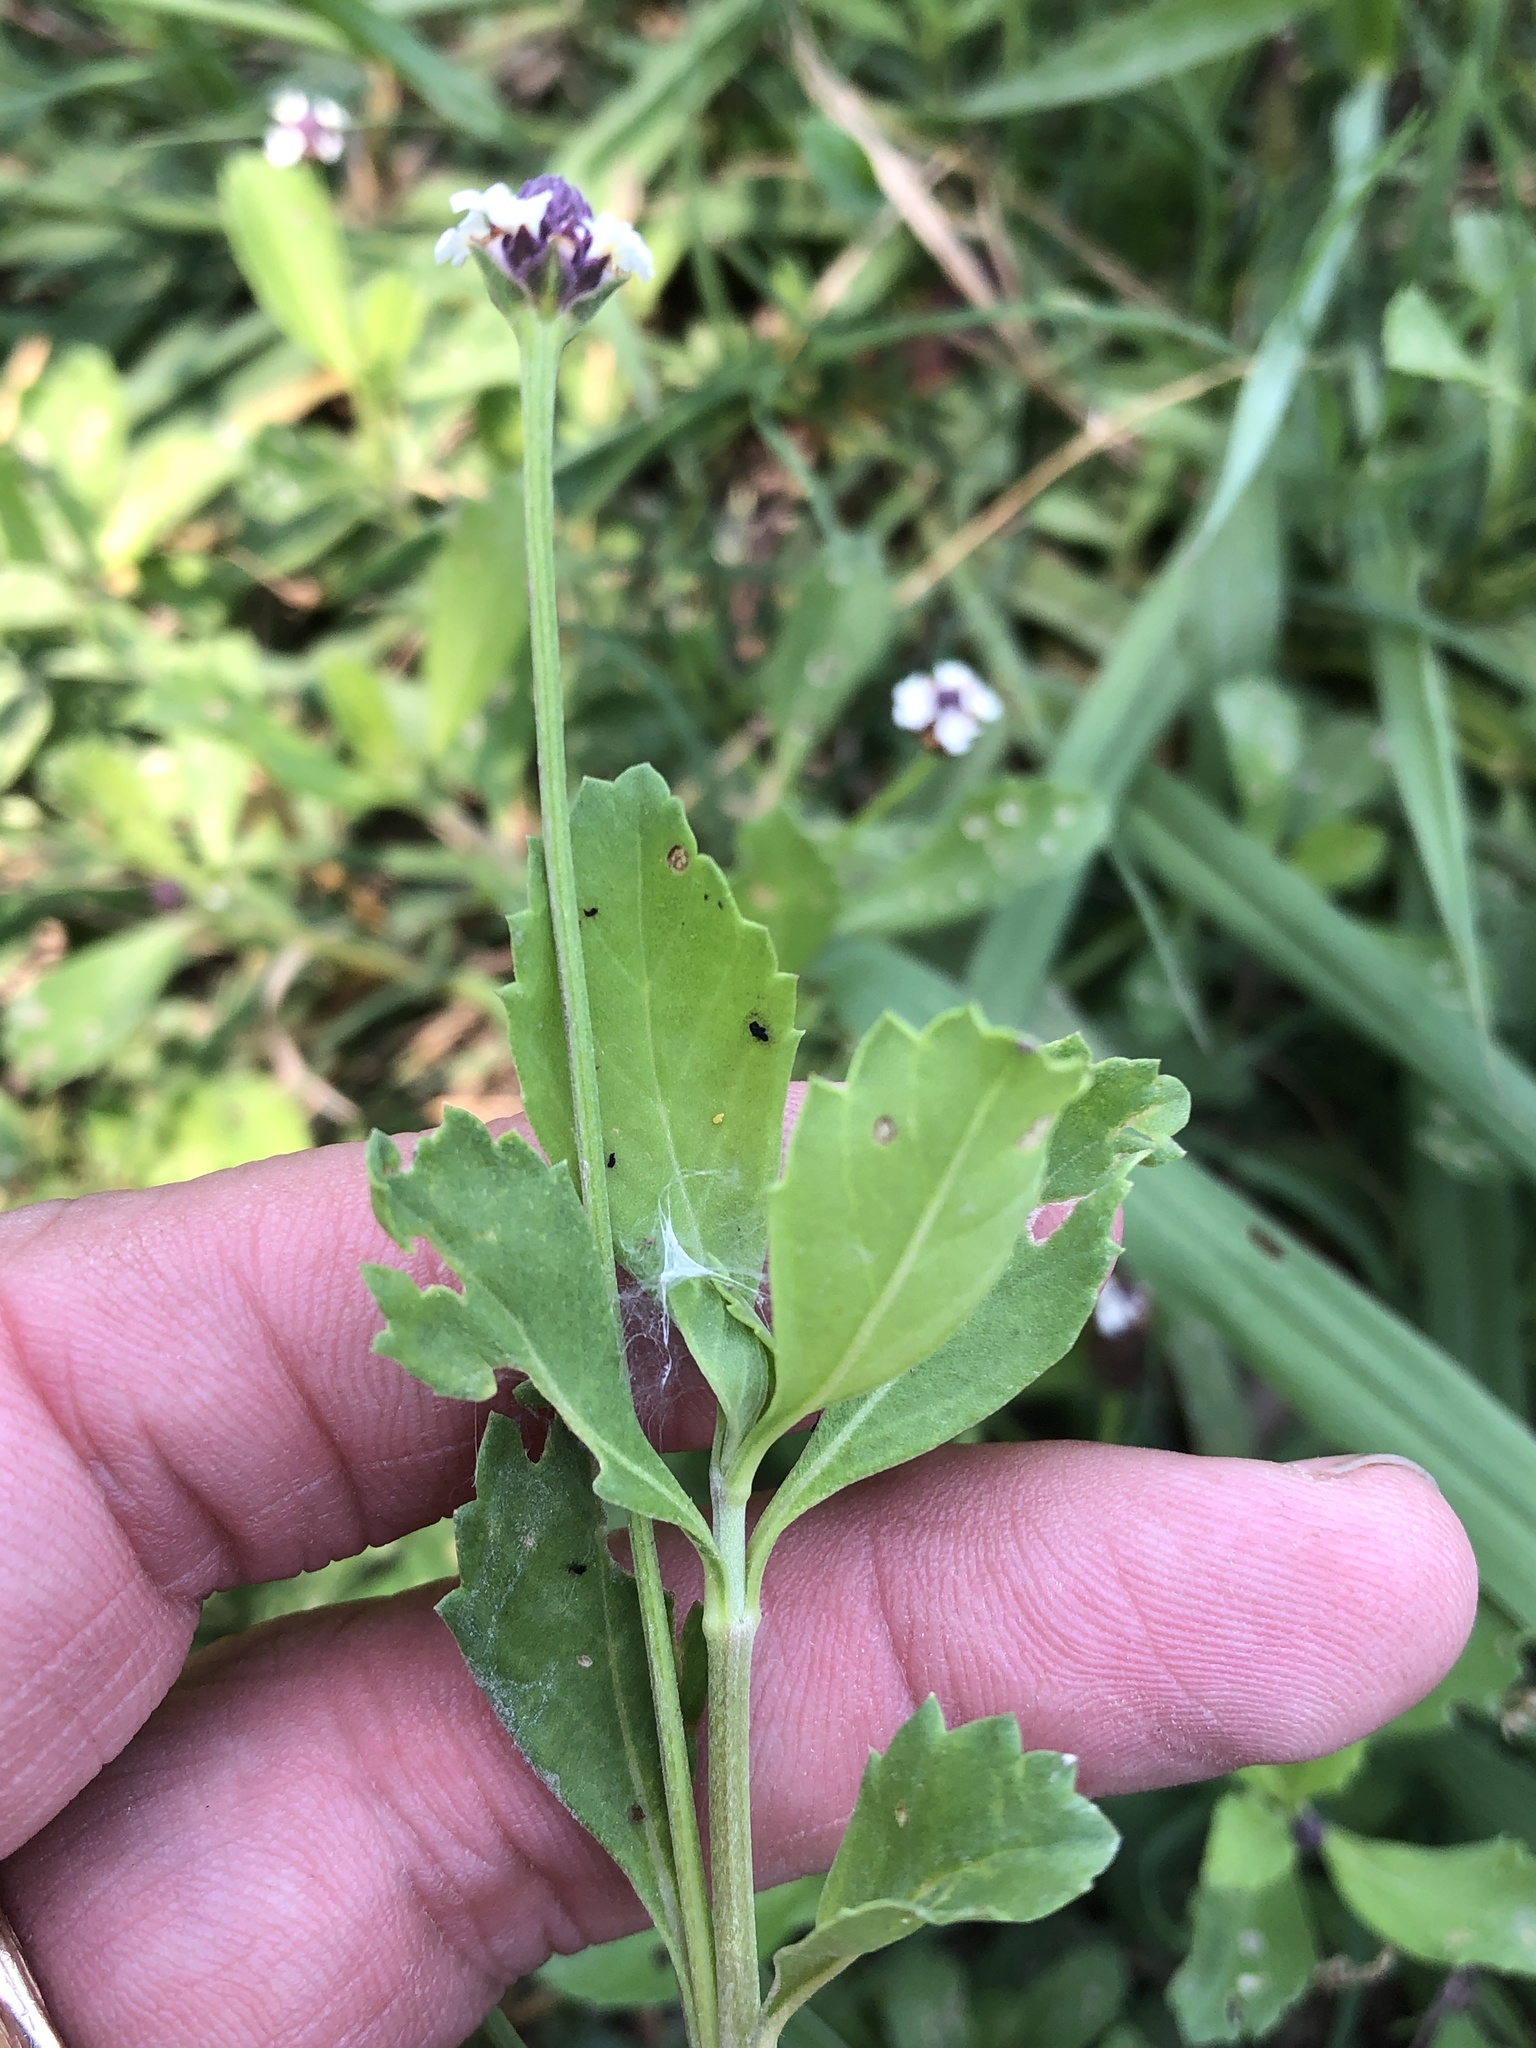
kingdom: Plantae
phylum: Tracheophyta
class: Magnoliopsida
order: Lamiales
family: Verbenaceae
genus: Phyla
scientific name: Phyla nodiflora
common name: Frogfruit
